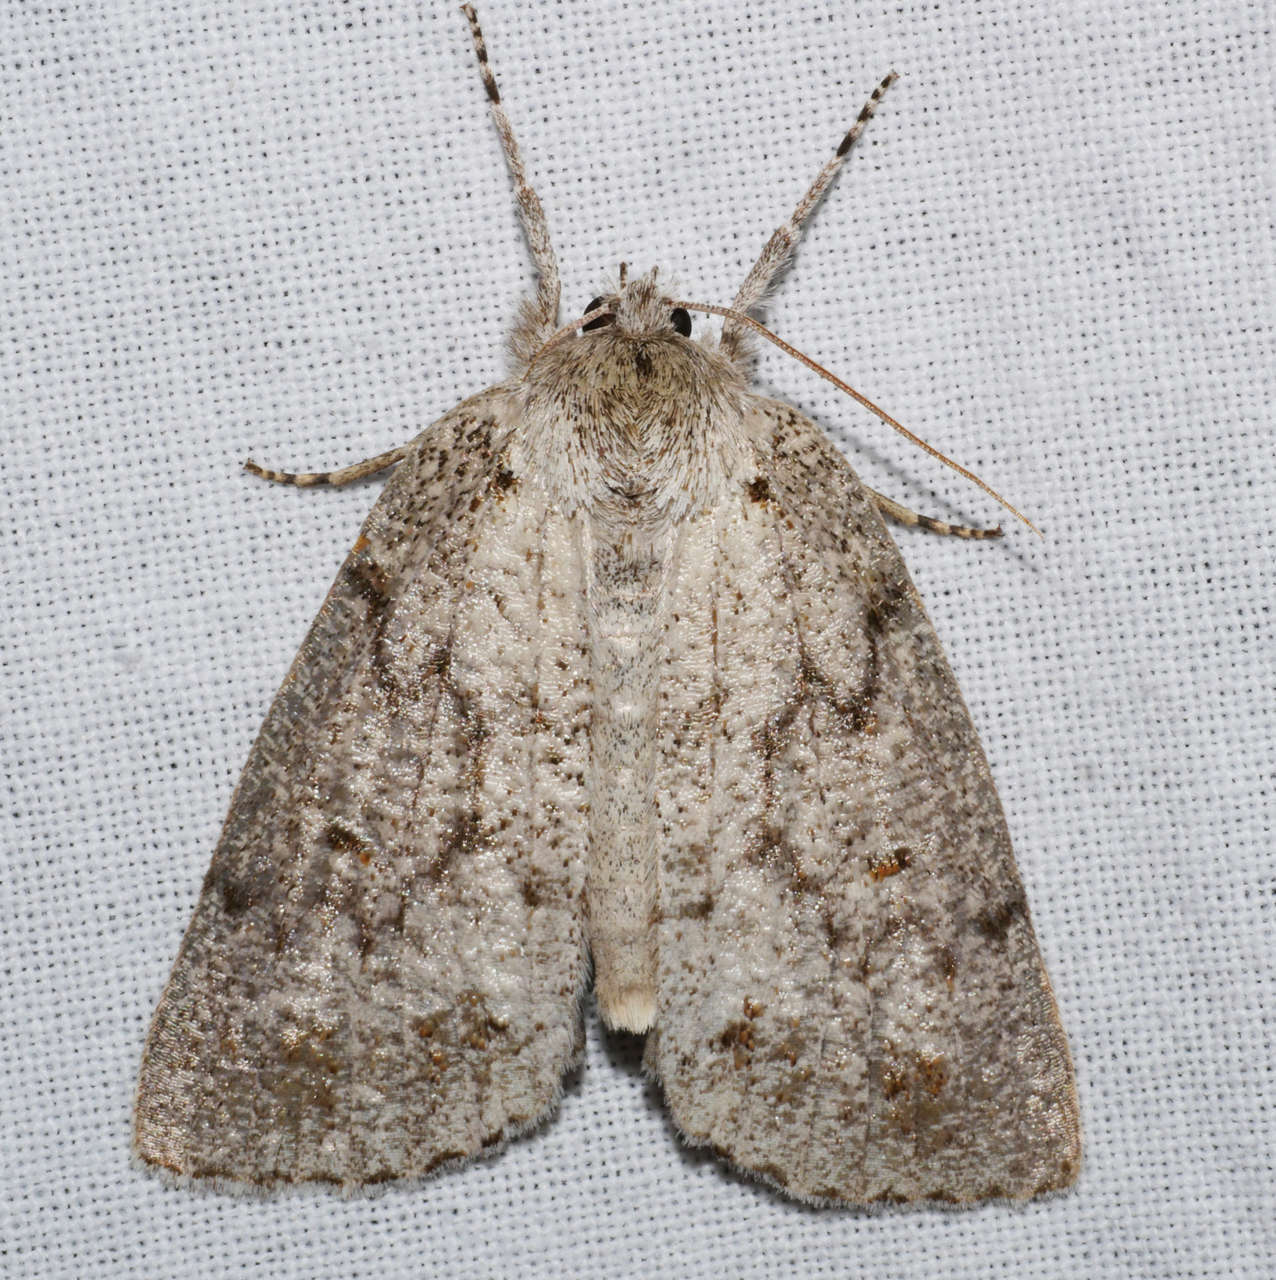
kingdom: Animalia
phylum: Arthropoda
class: Insecta
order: Lepidoptera
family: Geometridae
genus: Mochlotona
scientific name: Mochlotona phasmatias
